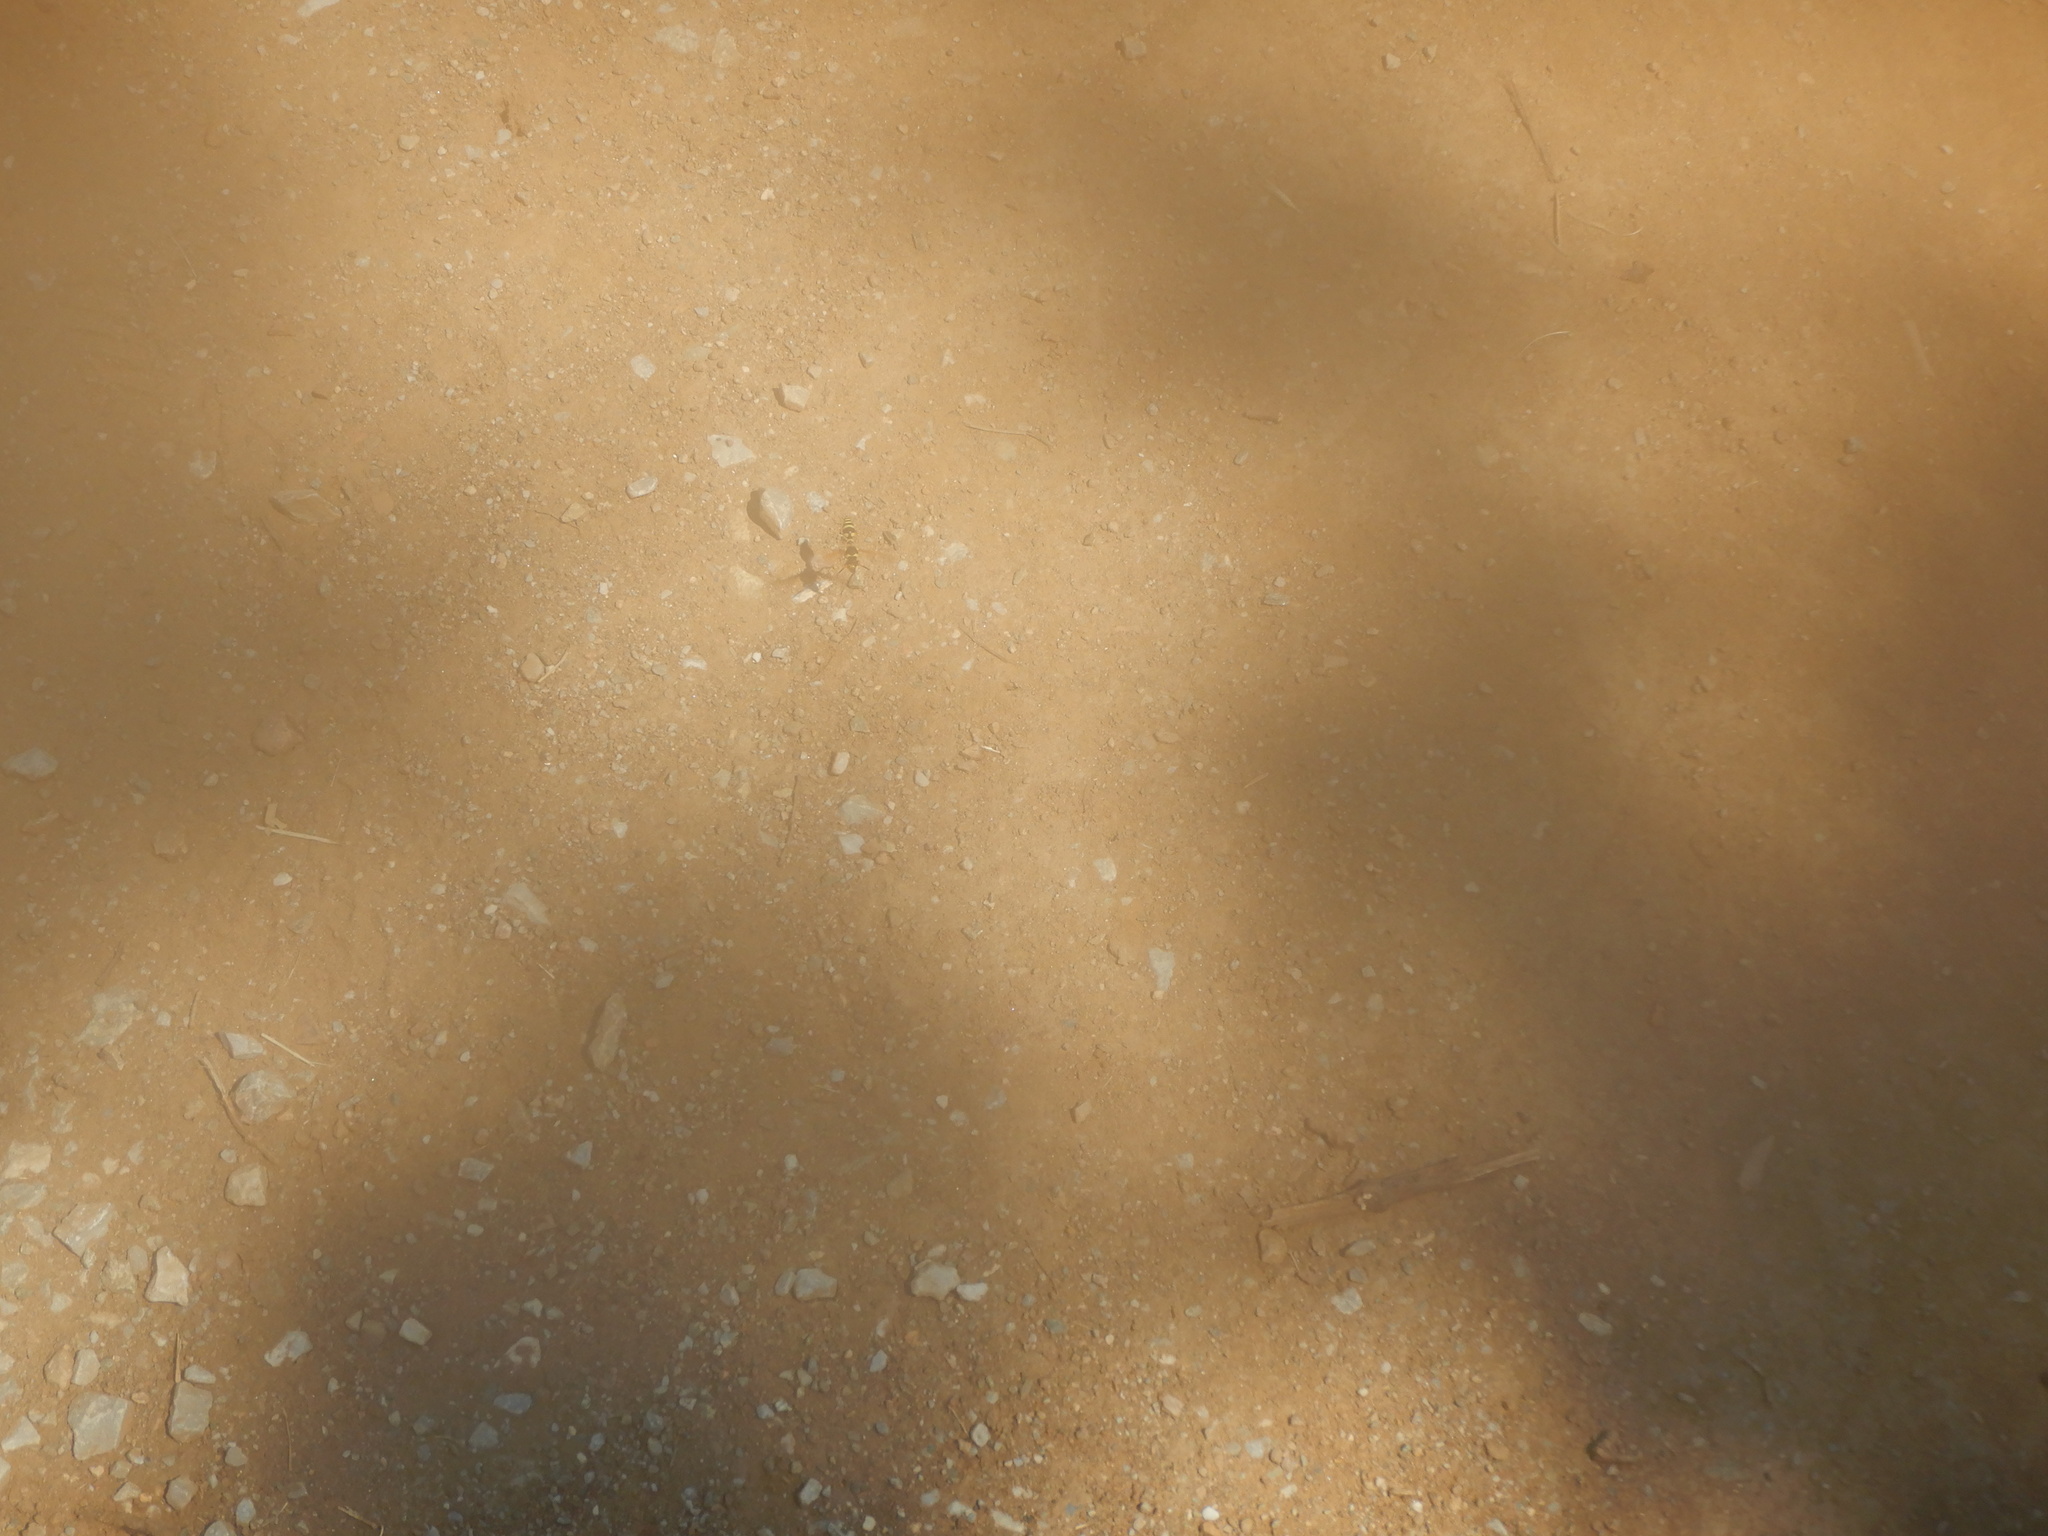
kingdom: Animalia
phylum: Arthropoda
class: Insecta
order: Hymenoptera
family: Vespidae
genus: Eumenes
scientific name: Eumenes
